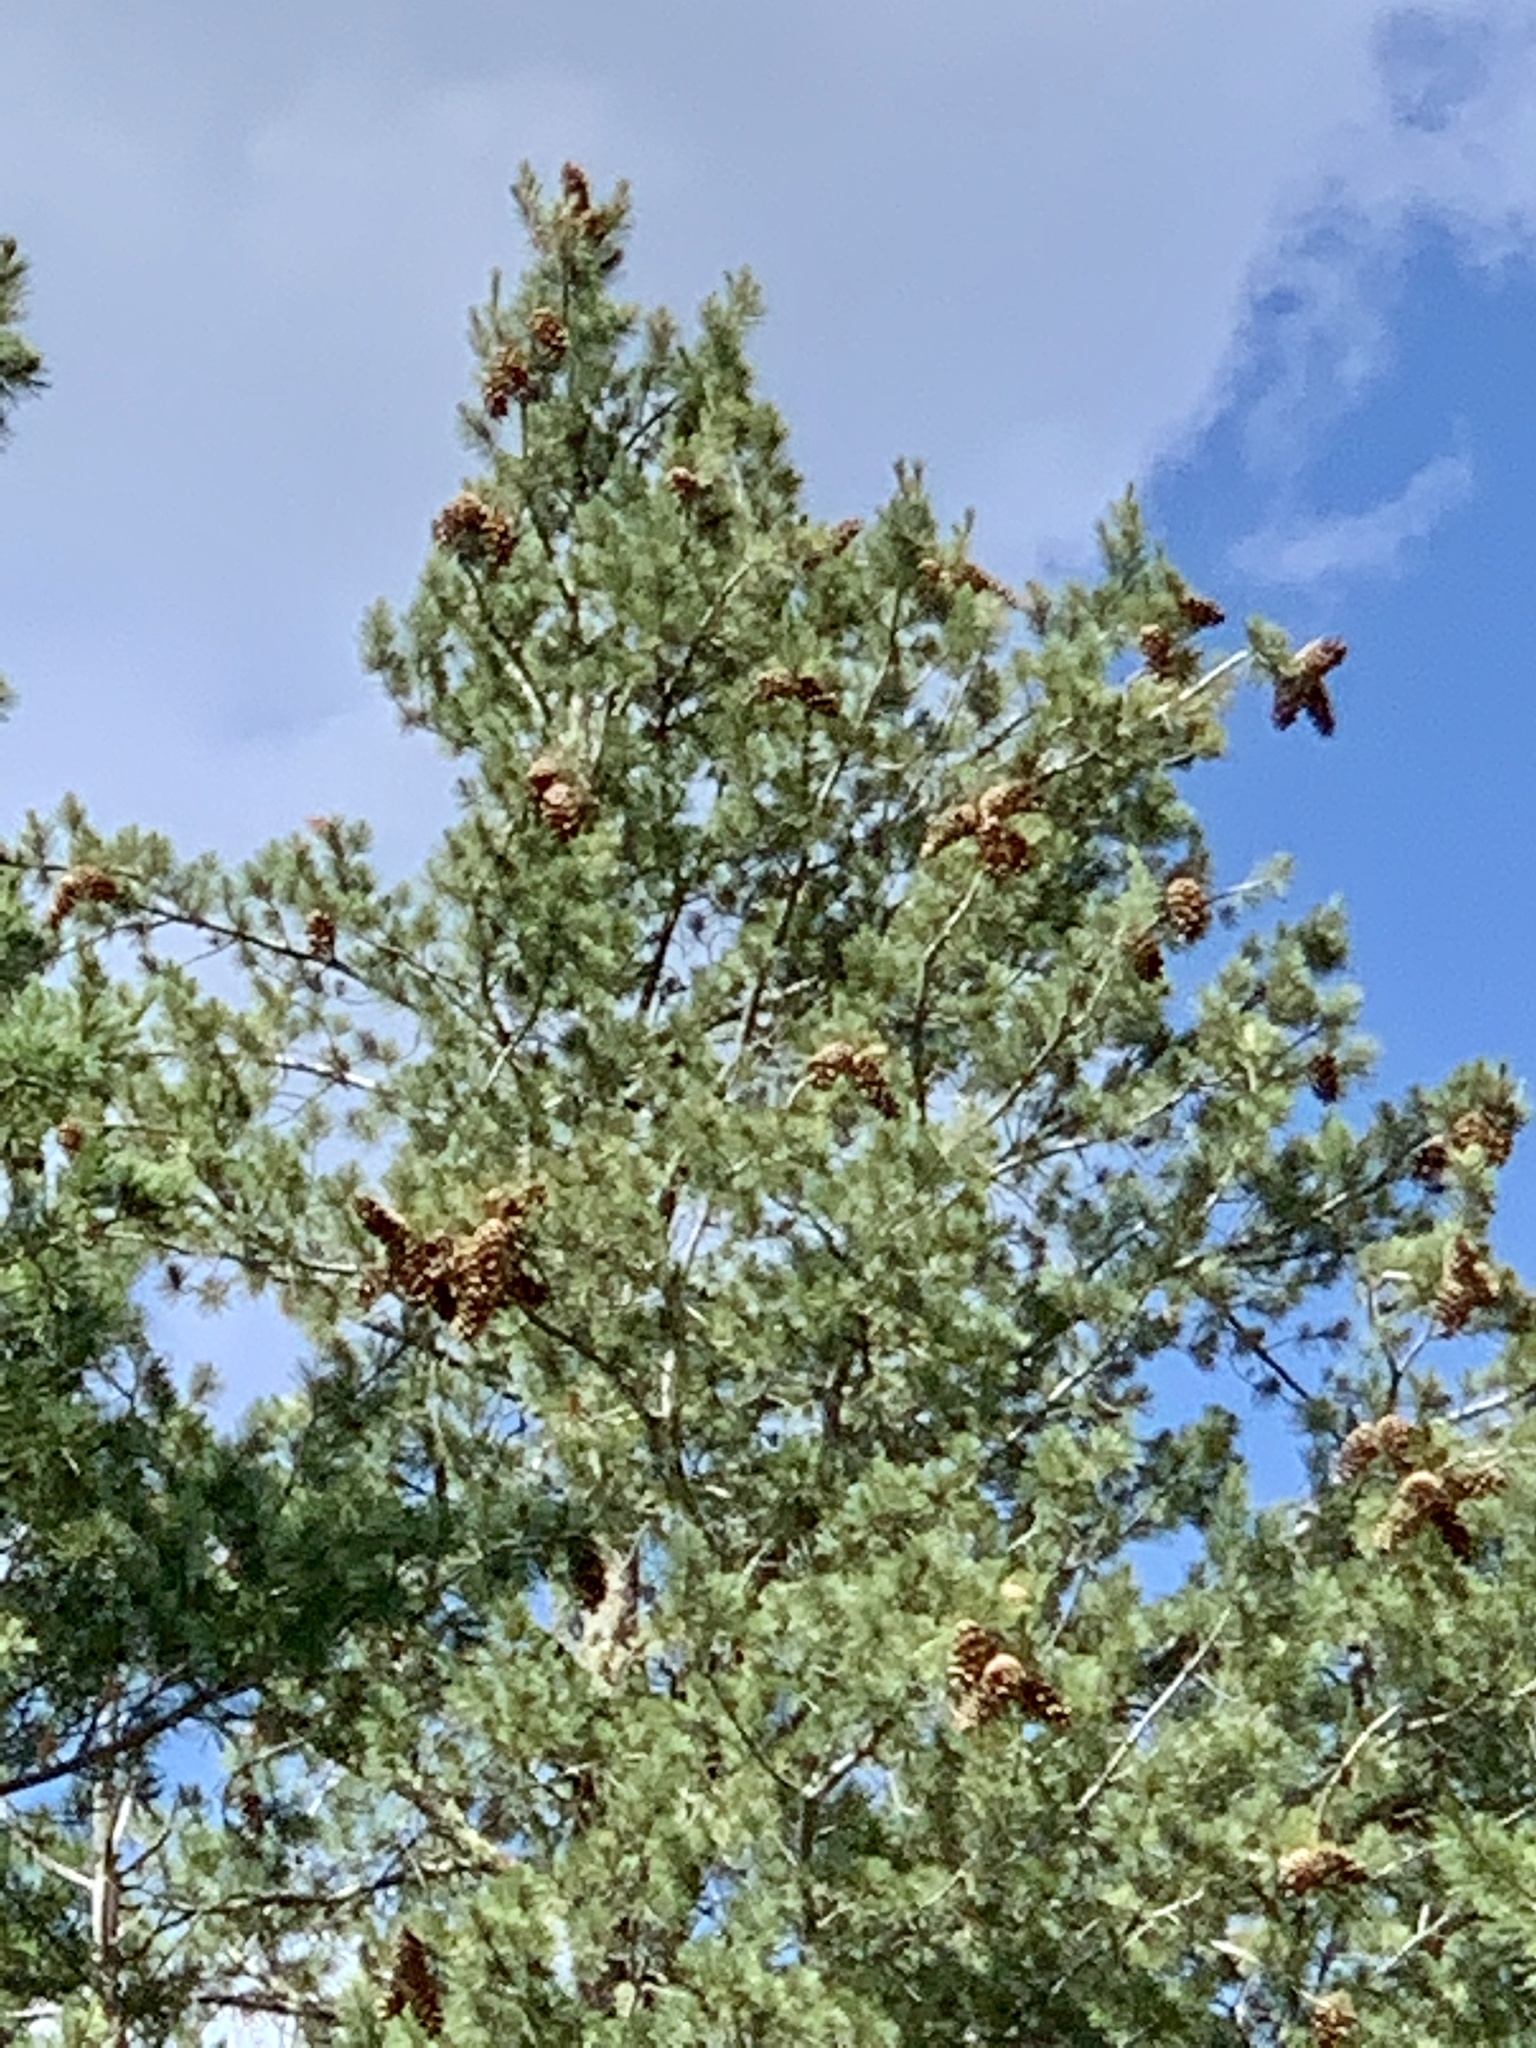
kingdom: Plantae
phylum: Tracheophyta
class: Pinopsida
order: Pinales
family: Pinaceae
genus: Pinus
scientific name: Pinus strobiformis
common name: Southwestern white pine
